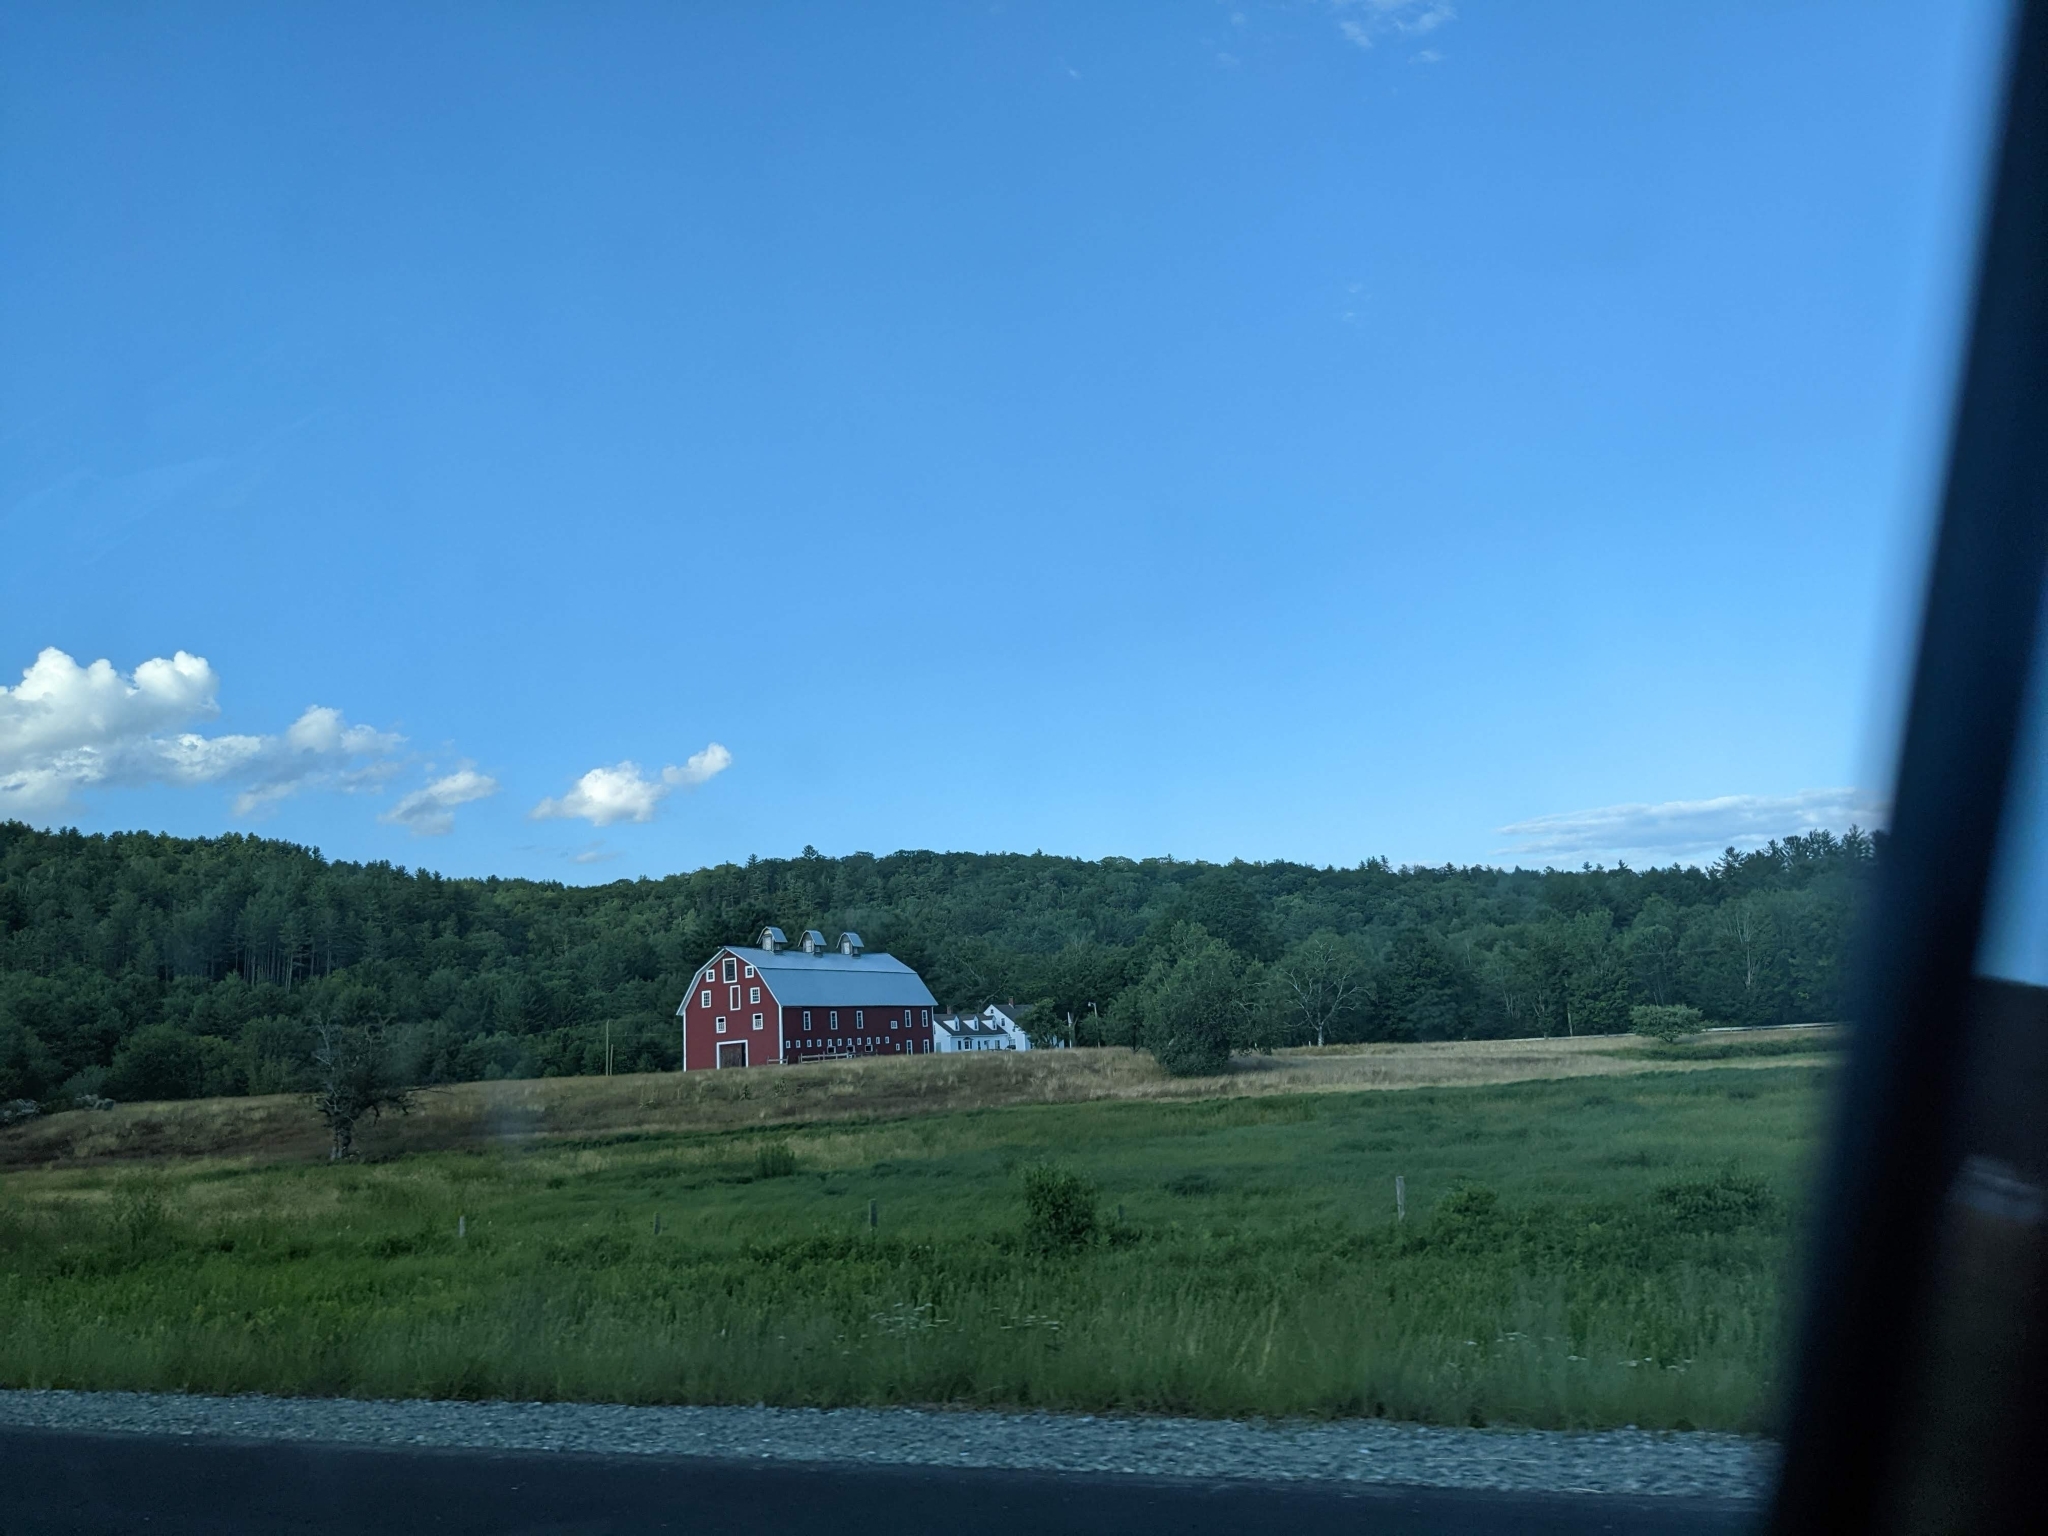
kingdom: Plantae
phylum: Tracheophyta
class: Pinopsida
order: Pinales
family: Pinaceae
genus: Pinus
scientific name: Pinus strobus
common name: Weymouth pine
